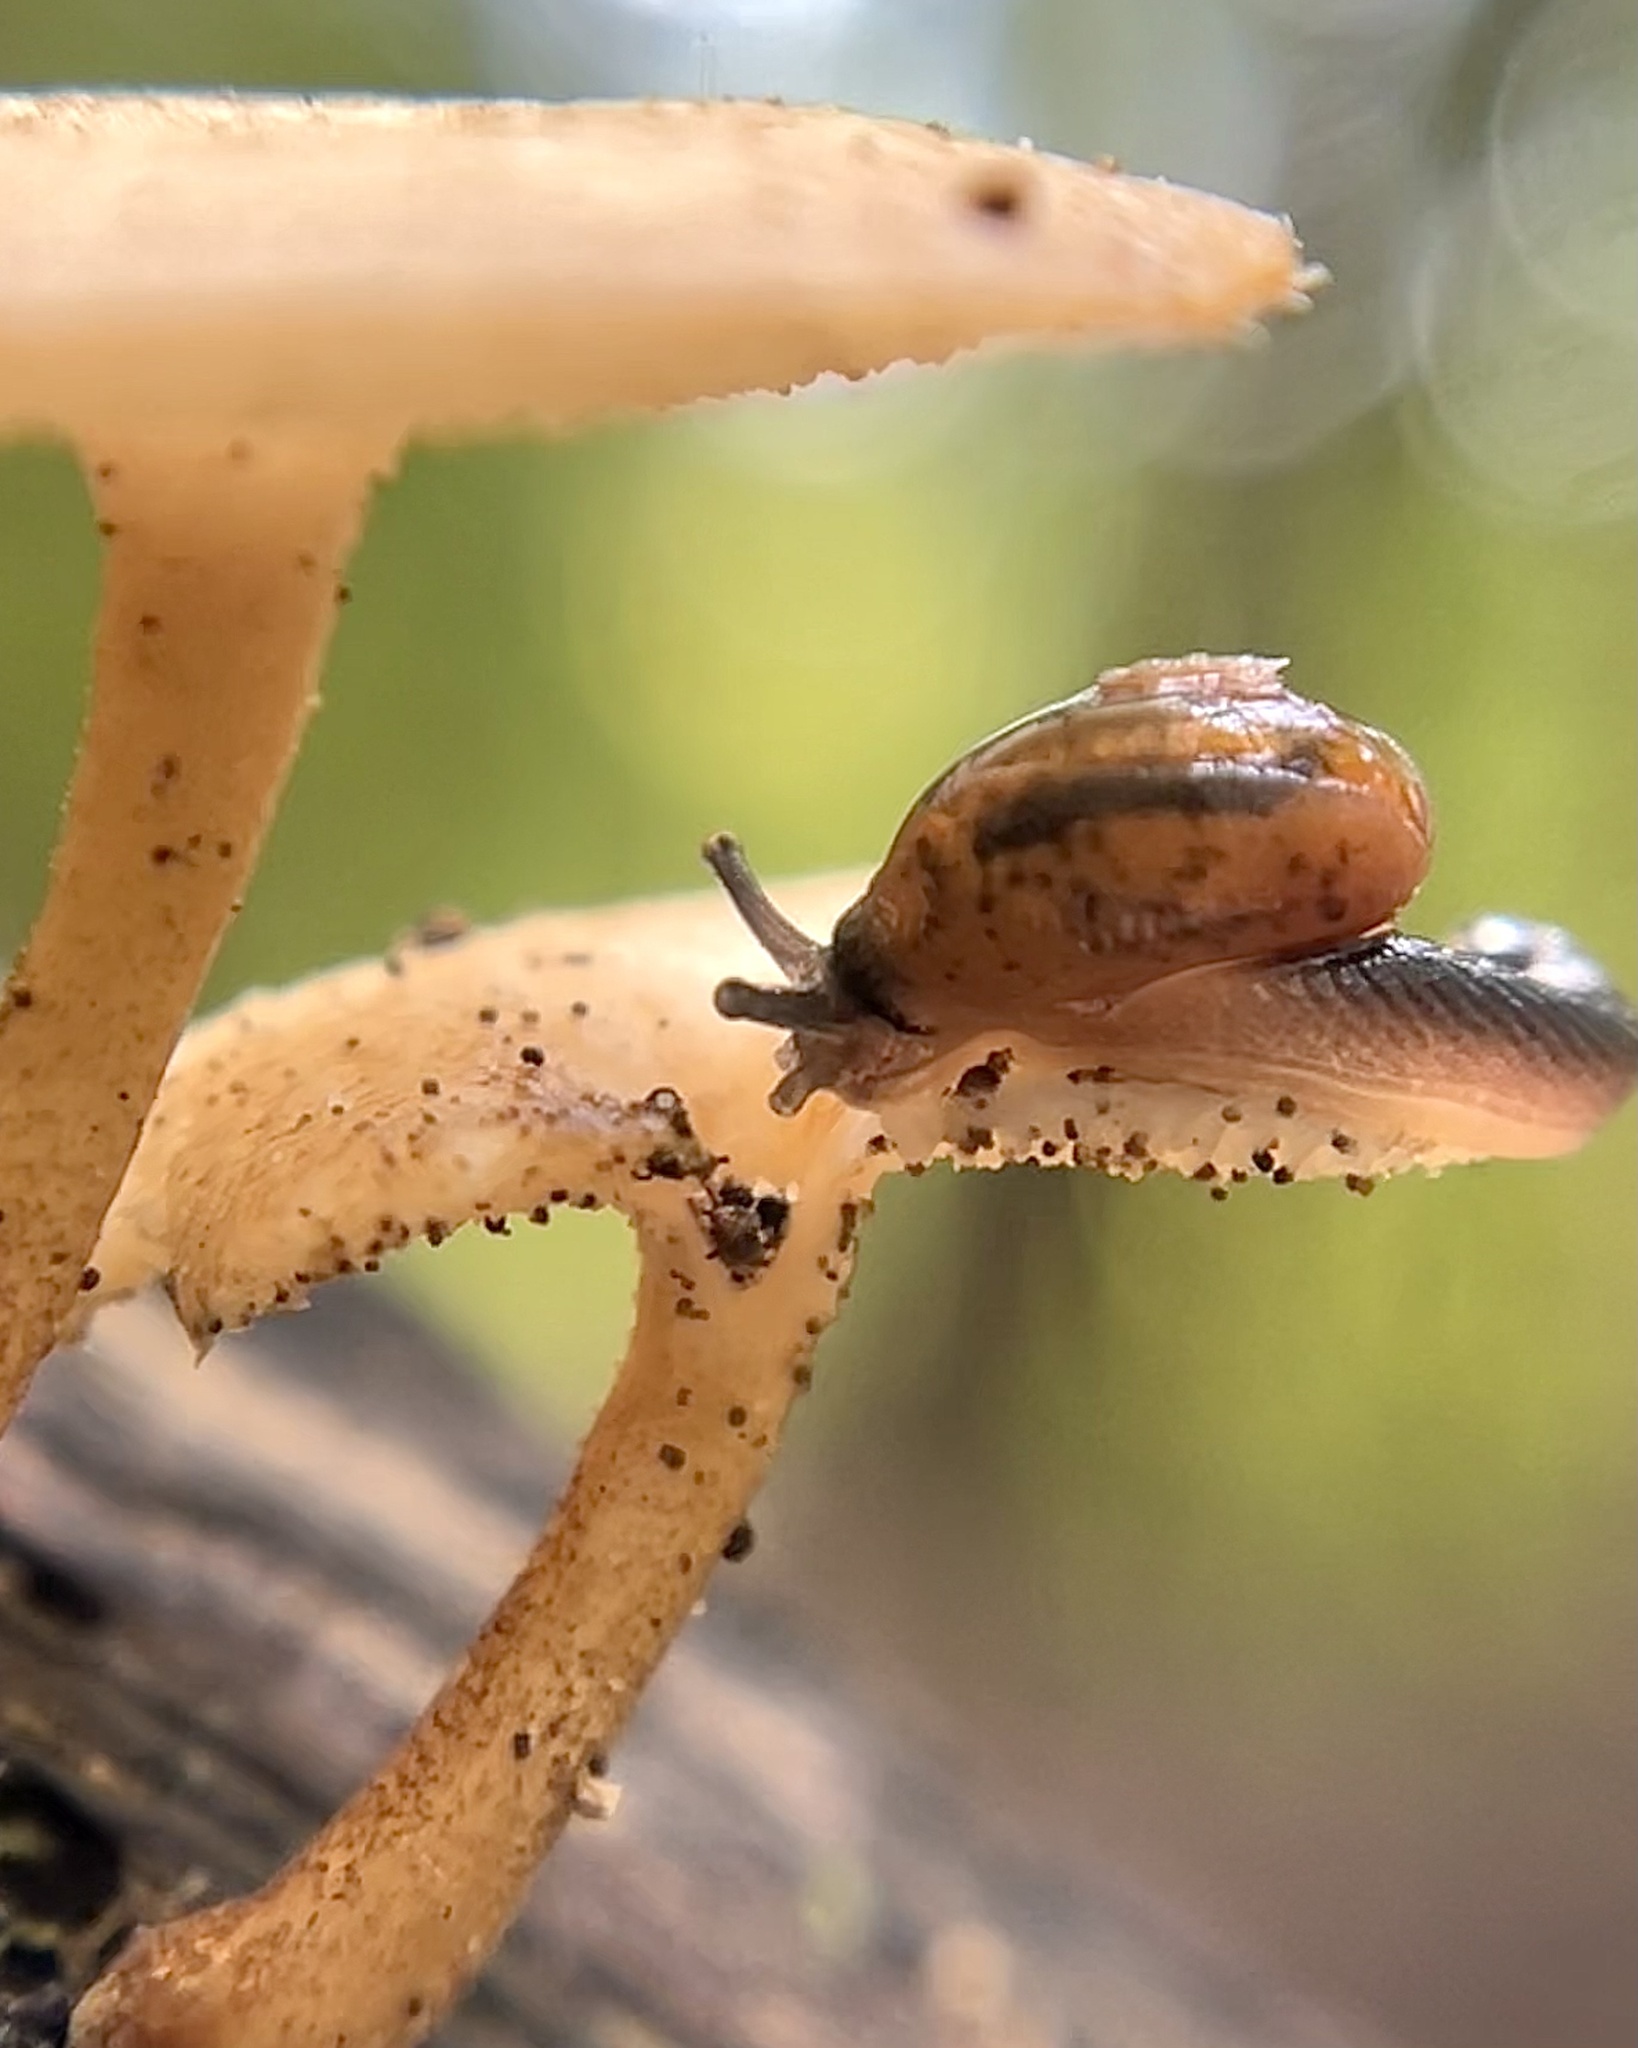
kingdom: Animalia
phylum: Mollusca
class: Gastropoda
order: Stylommatophora
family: Helicarionidae
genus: Ovachlamys
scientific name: Ovachlamys fulgens
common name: Jumping snail
